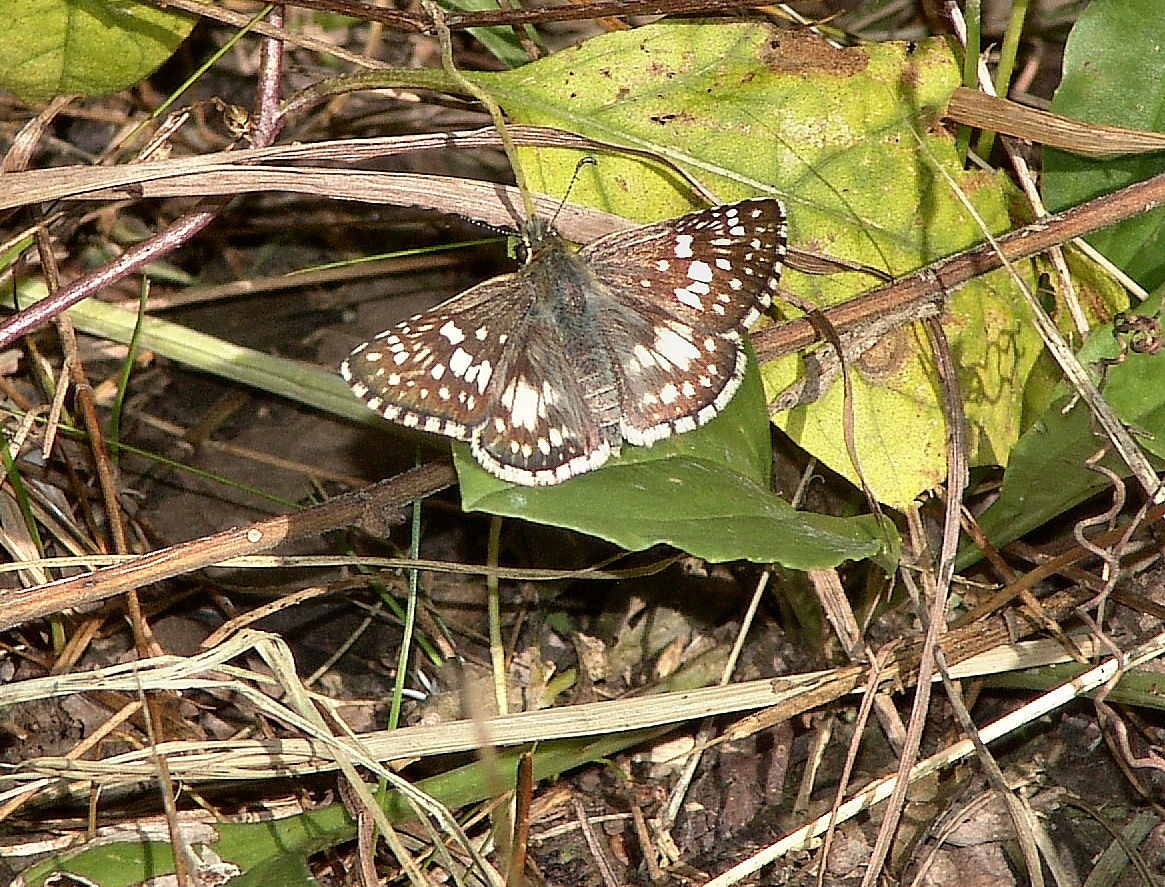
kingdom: Animalia
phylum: Arthropoda
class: Insecta
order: Lepidoptera
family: Hesperiidae
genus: Burnsius
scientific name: Burnsius communis
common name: Common checkered-skipper
